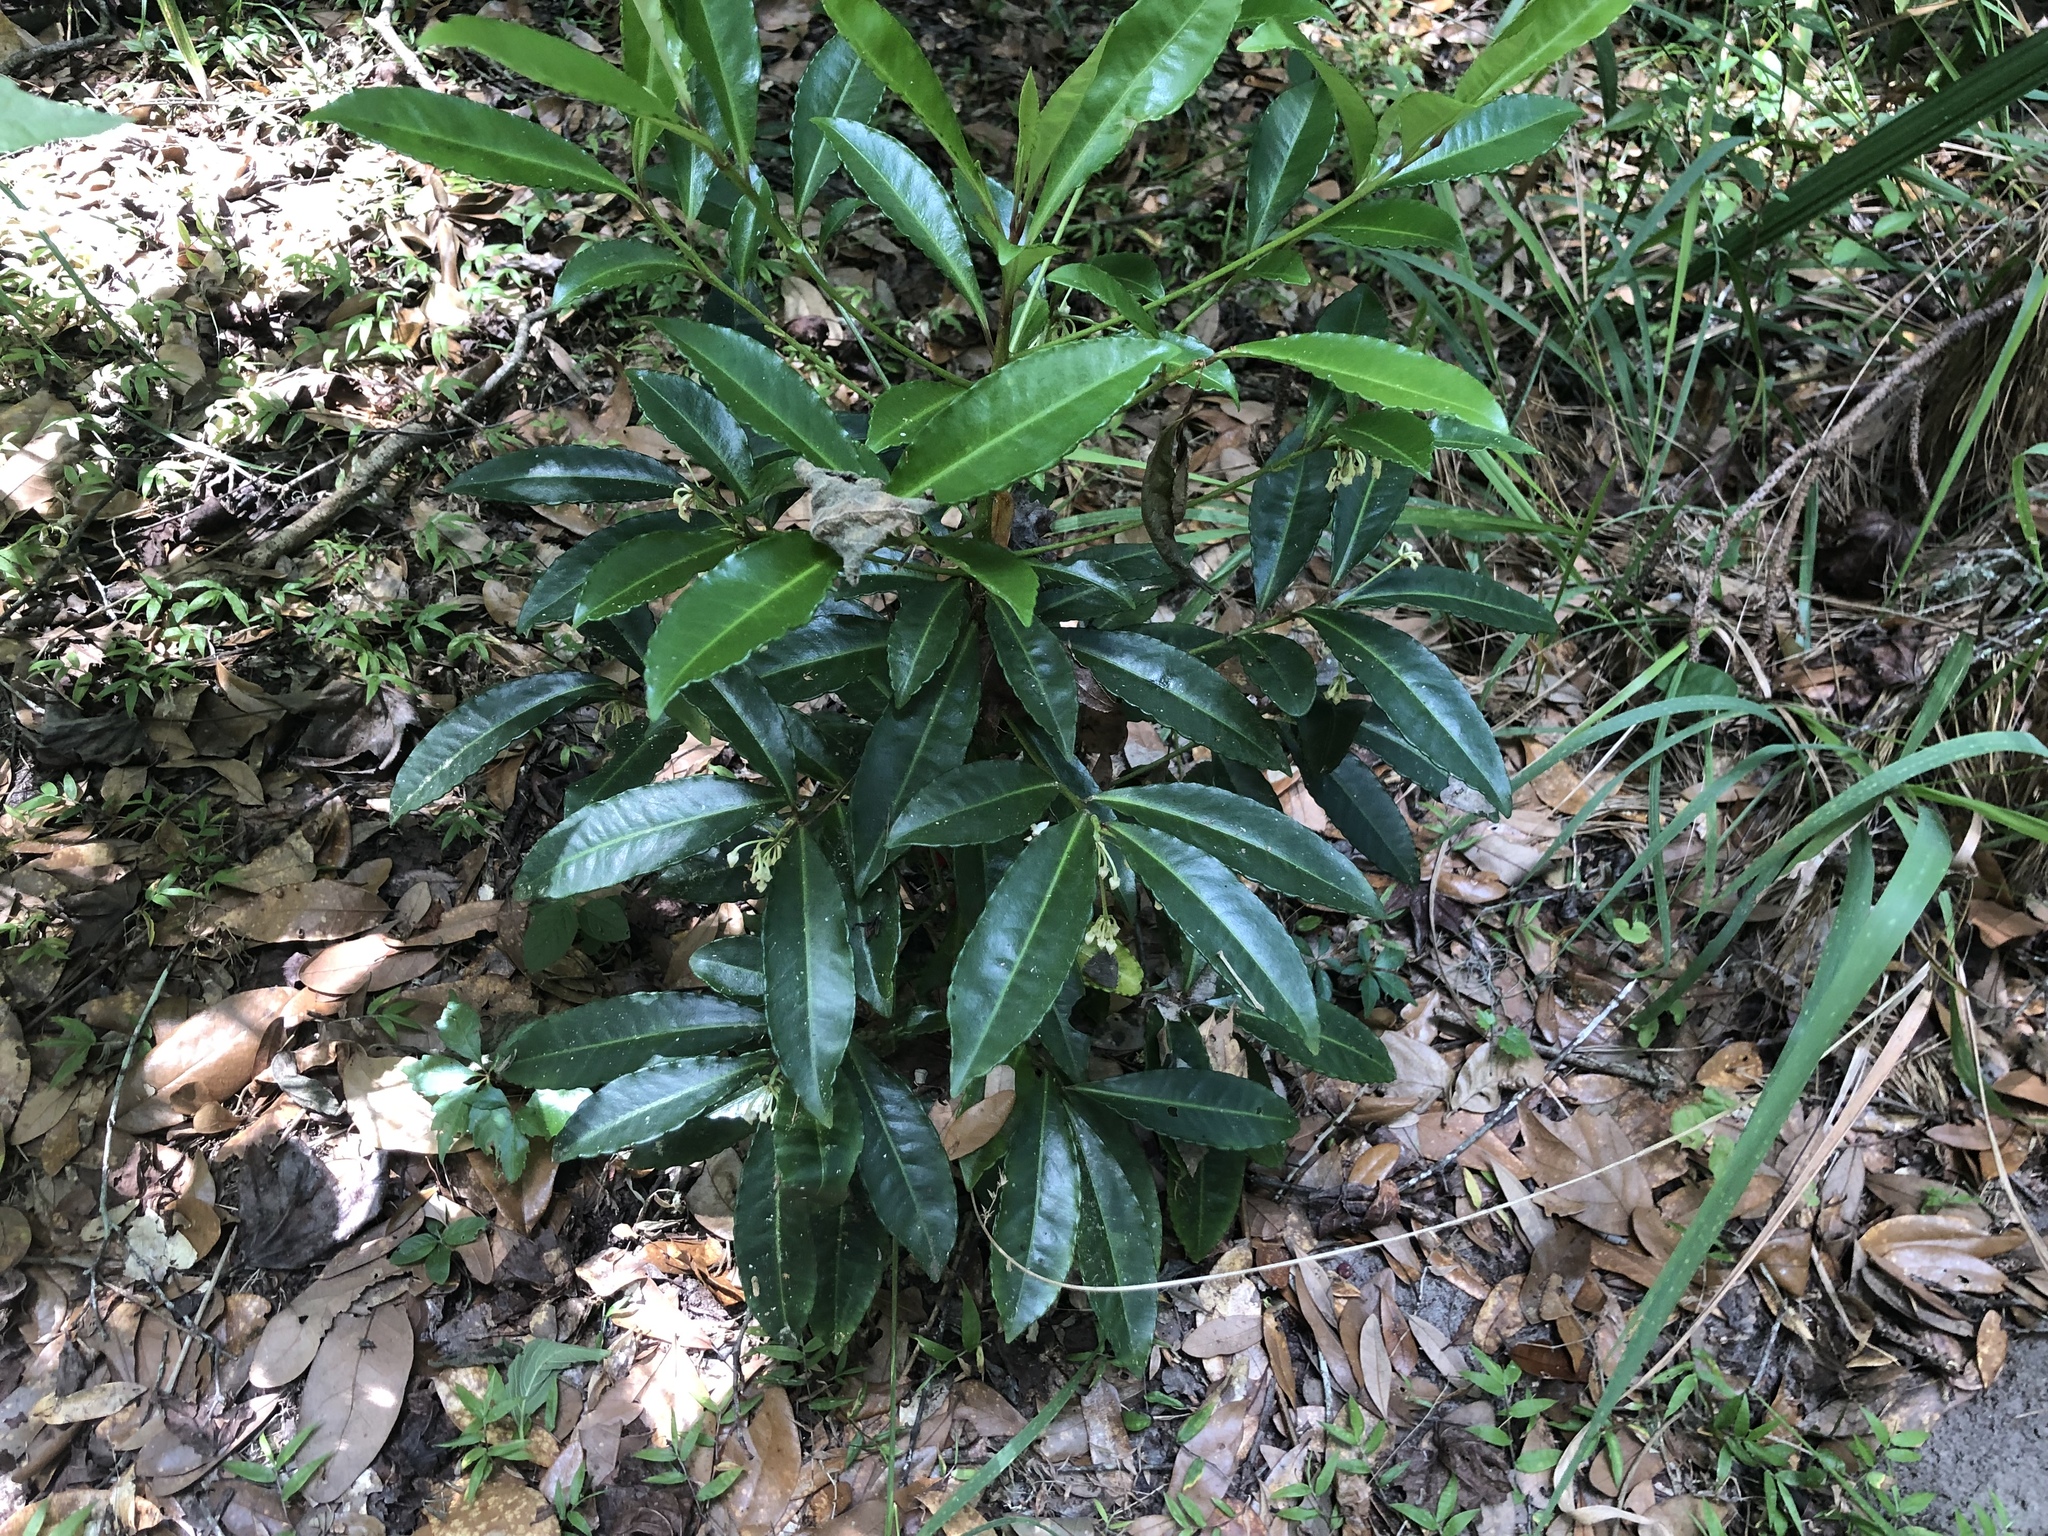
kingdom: Plantae
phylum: Tracheophyta
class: Magnoliopsida
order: Ericales
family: Primulaceae
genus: Ardisia
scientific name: Ardisia crenata
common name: Hen's eyes
